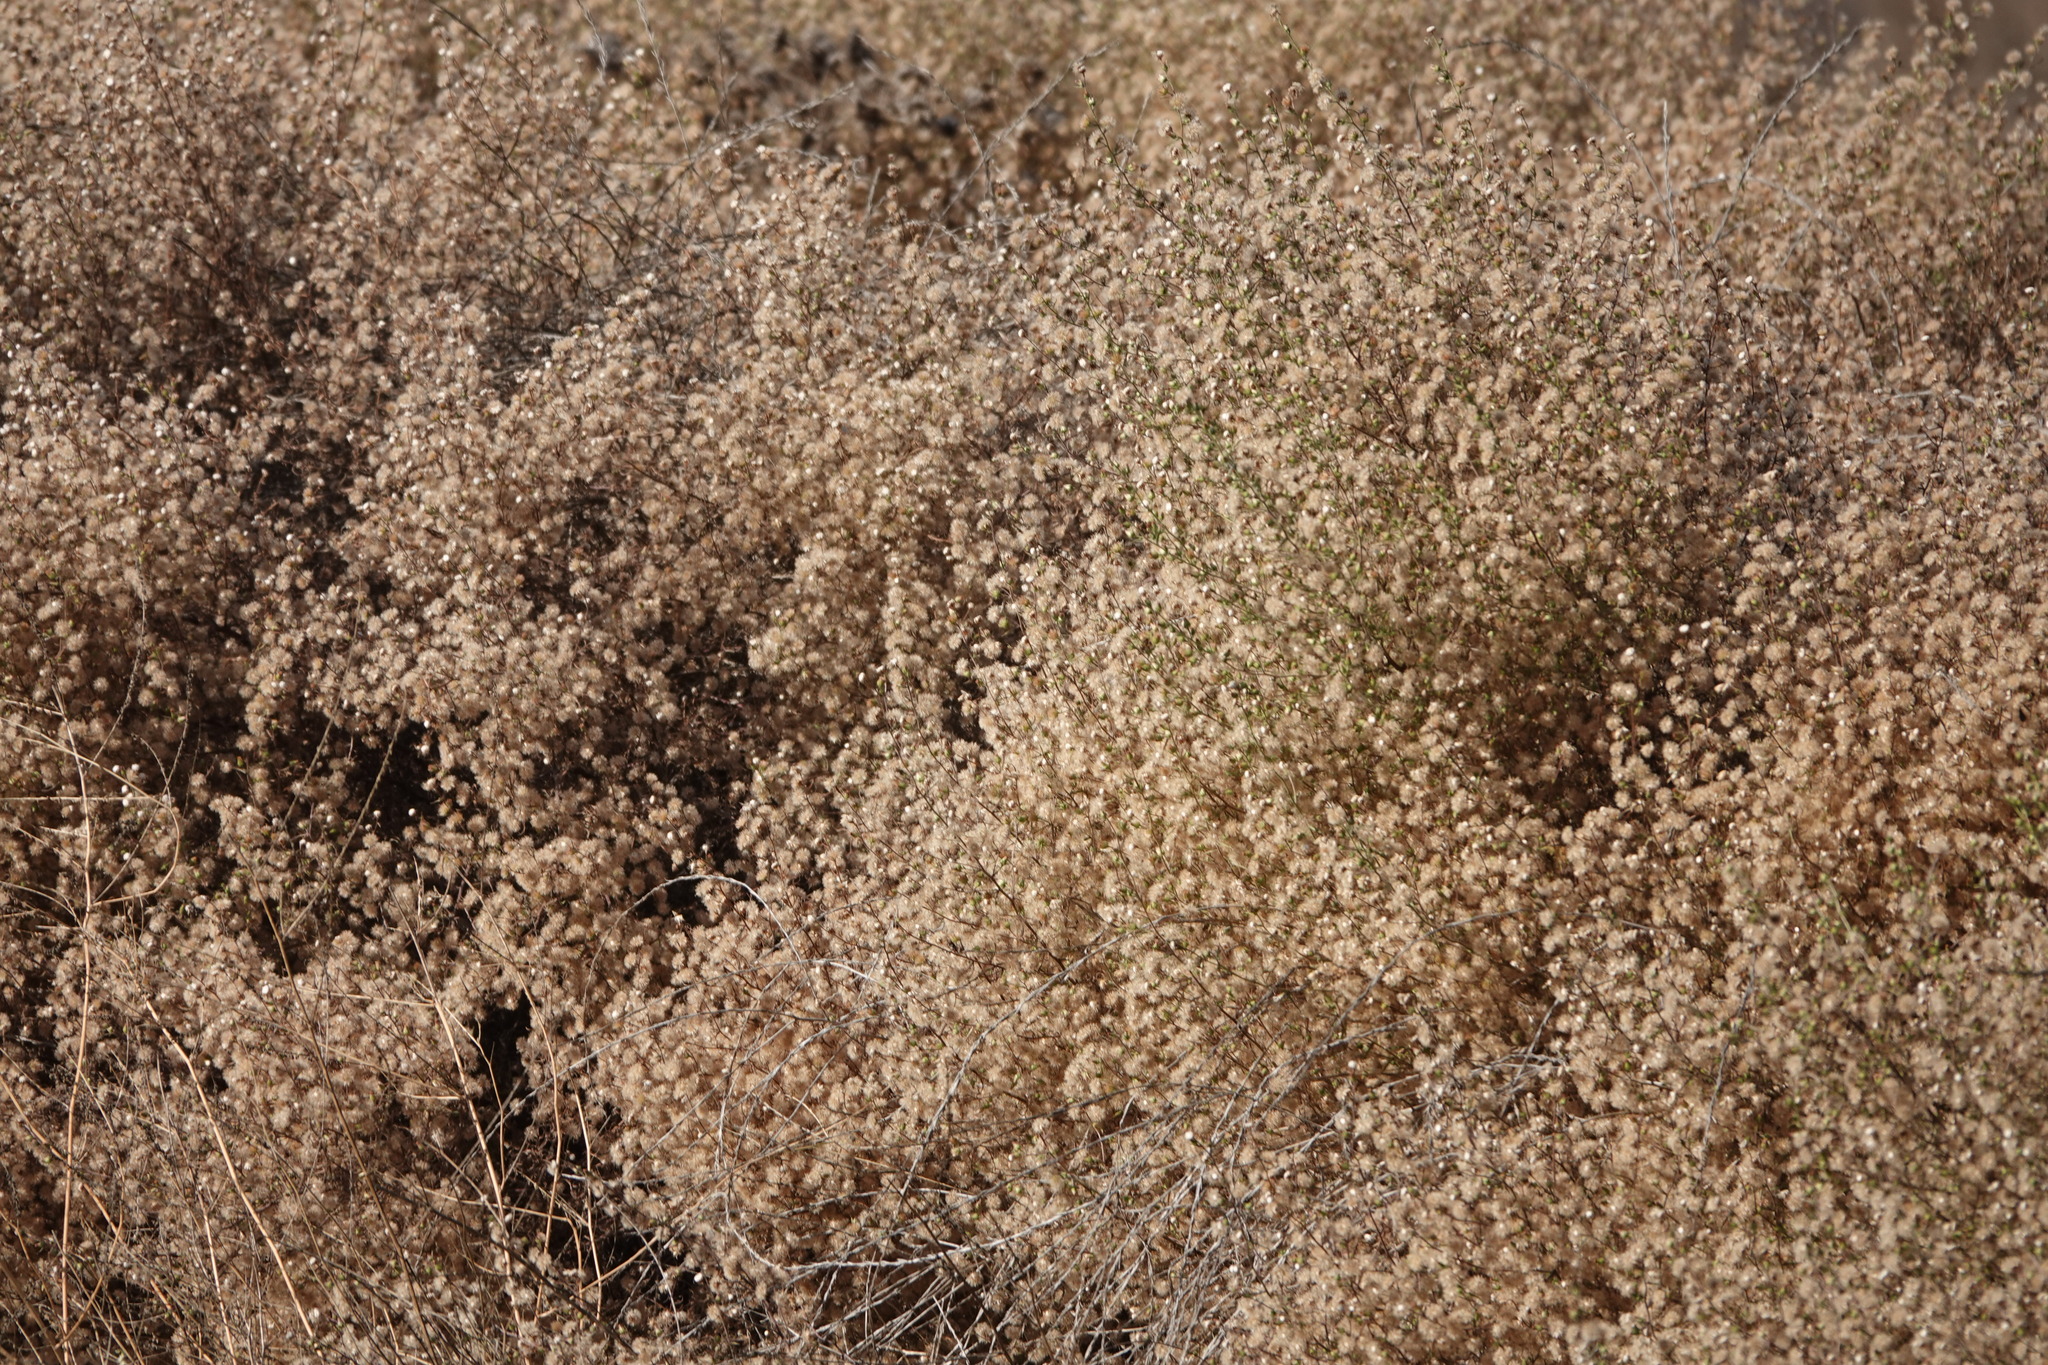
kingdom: Plantae
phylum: Tracheophyta
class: Magnoliopsida
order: Asterales
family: Asteraceae
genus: Dittrichia
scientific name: Dittrichia graveolens
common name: Stinking fleabane
